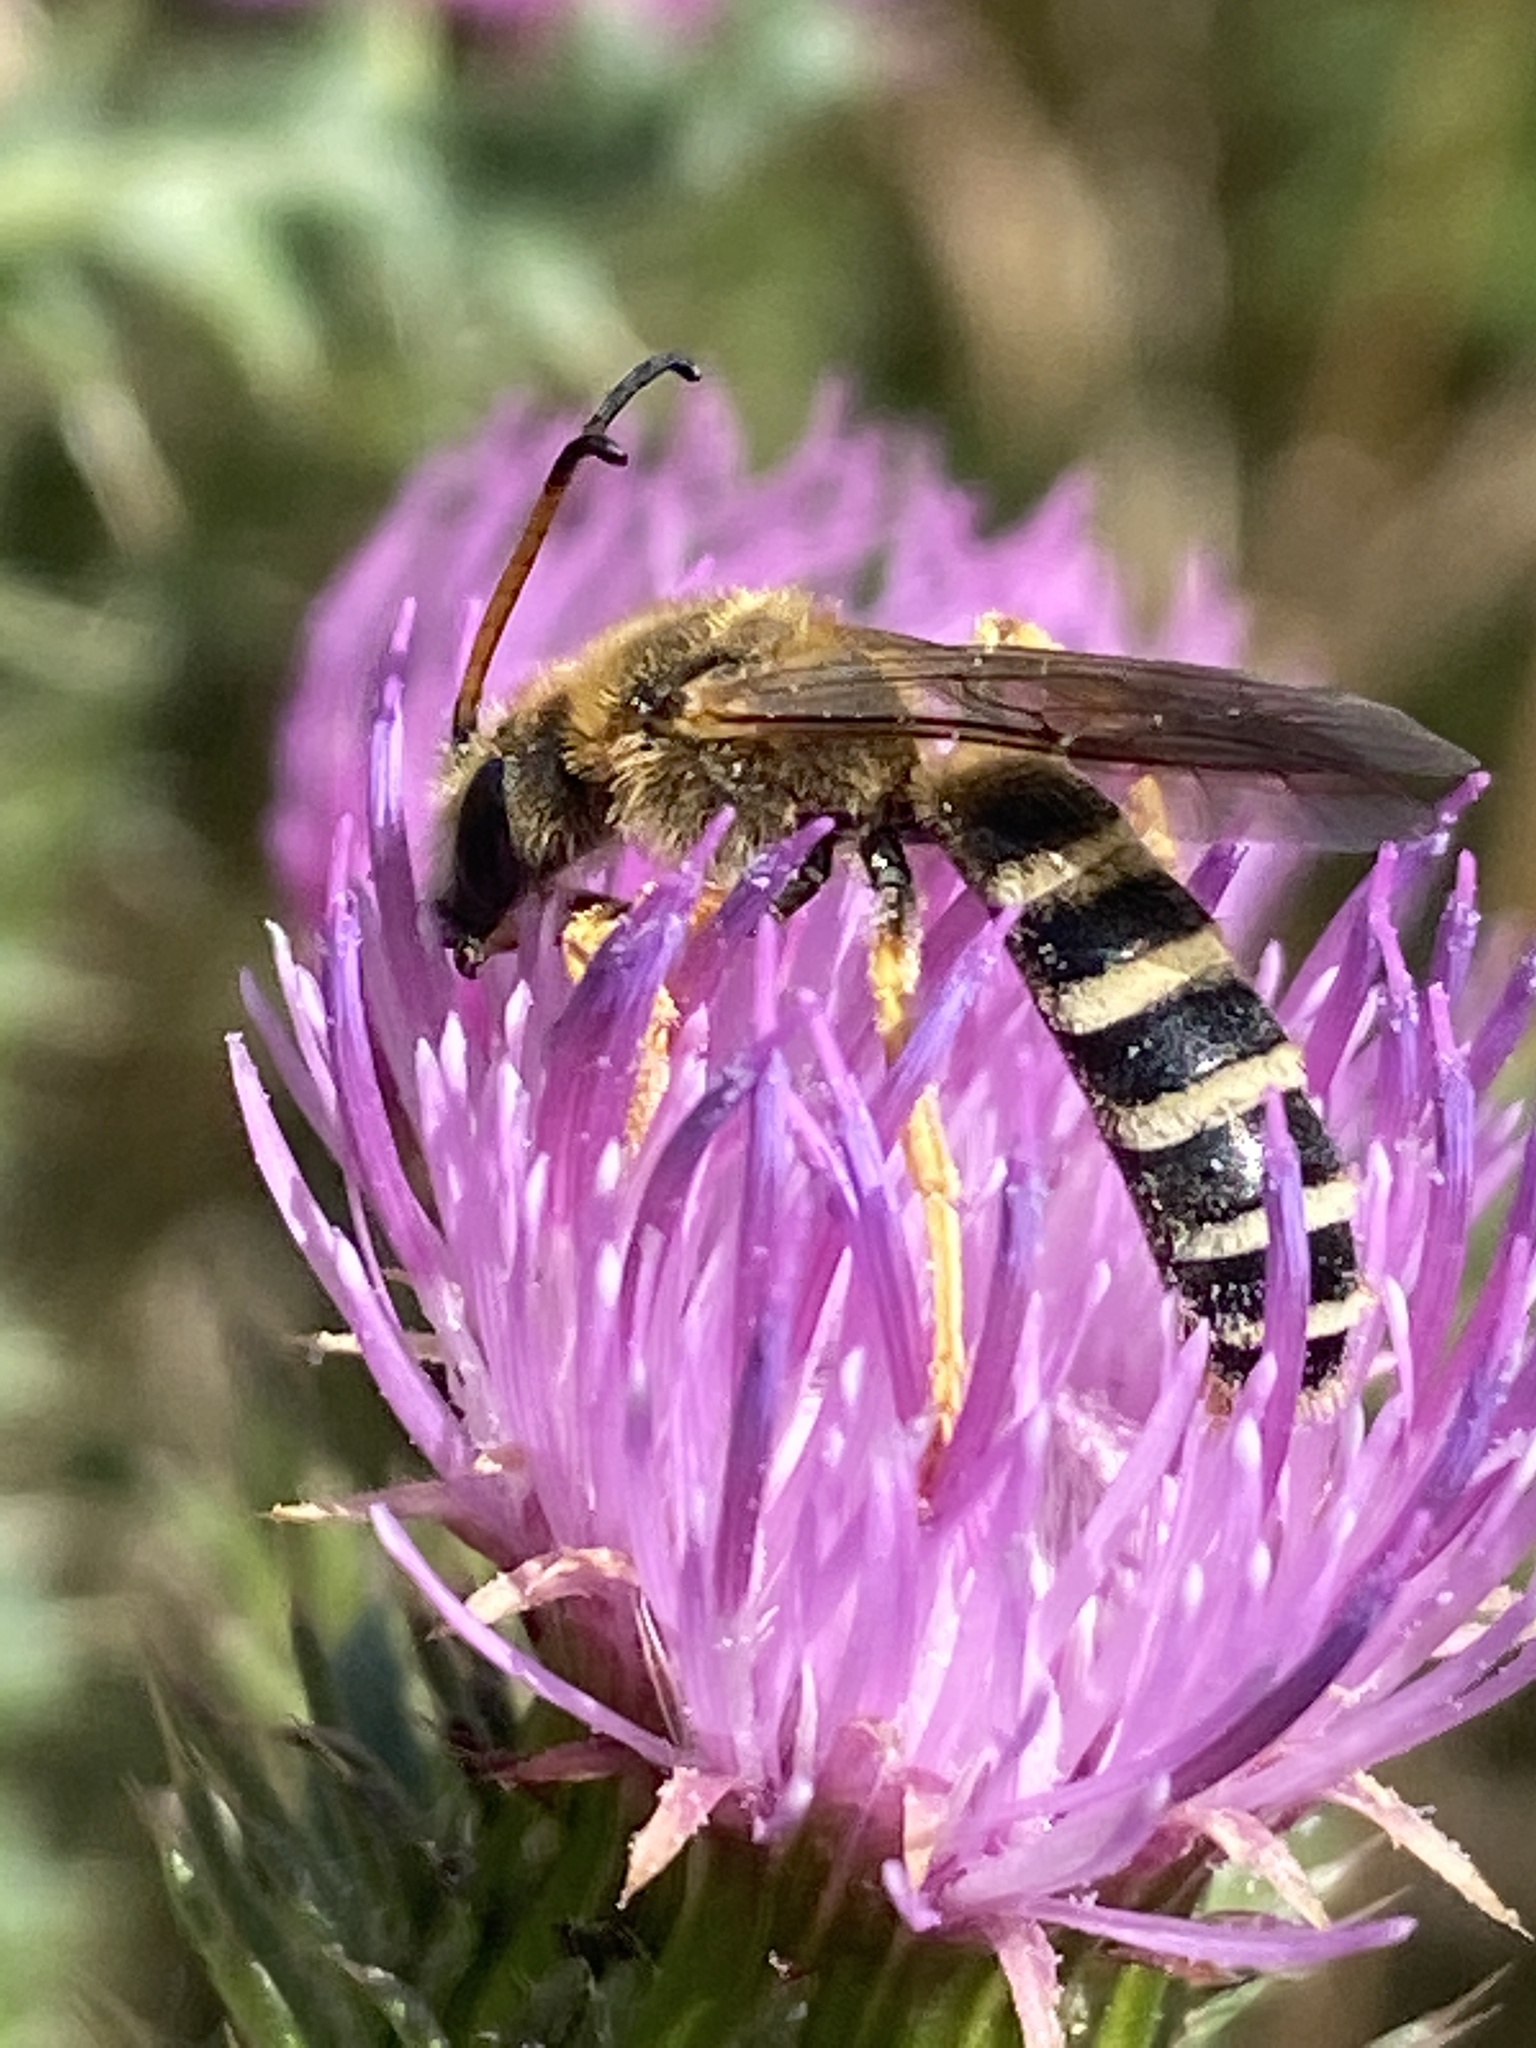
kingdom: Animalia
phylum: Arthropoda
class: Insecta
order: Hymenoptera
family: Halictidae
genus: Halictus
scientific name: Halictus sexcinctus
